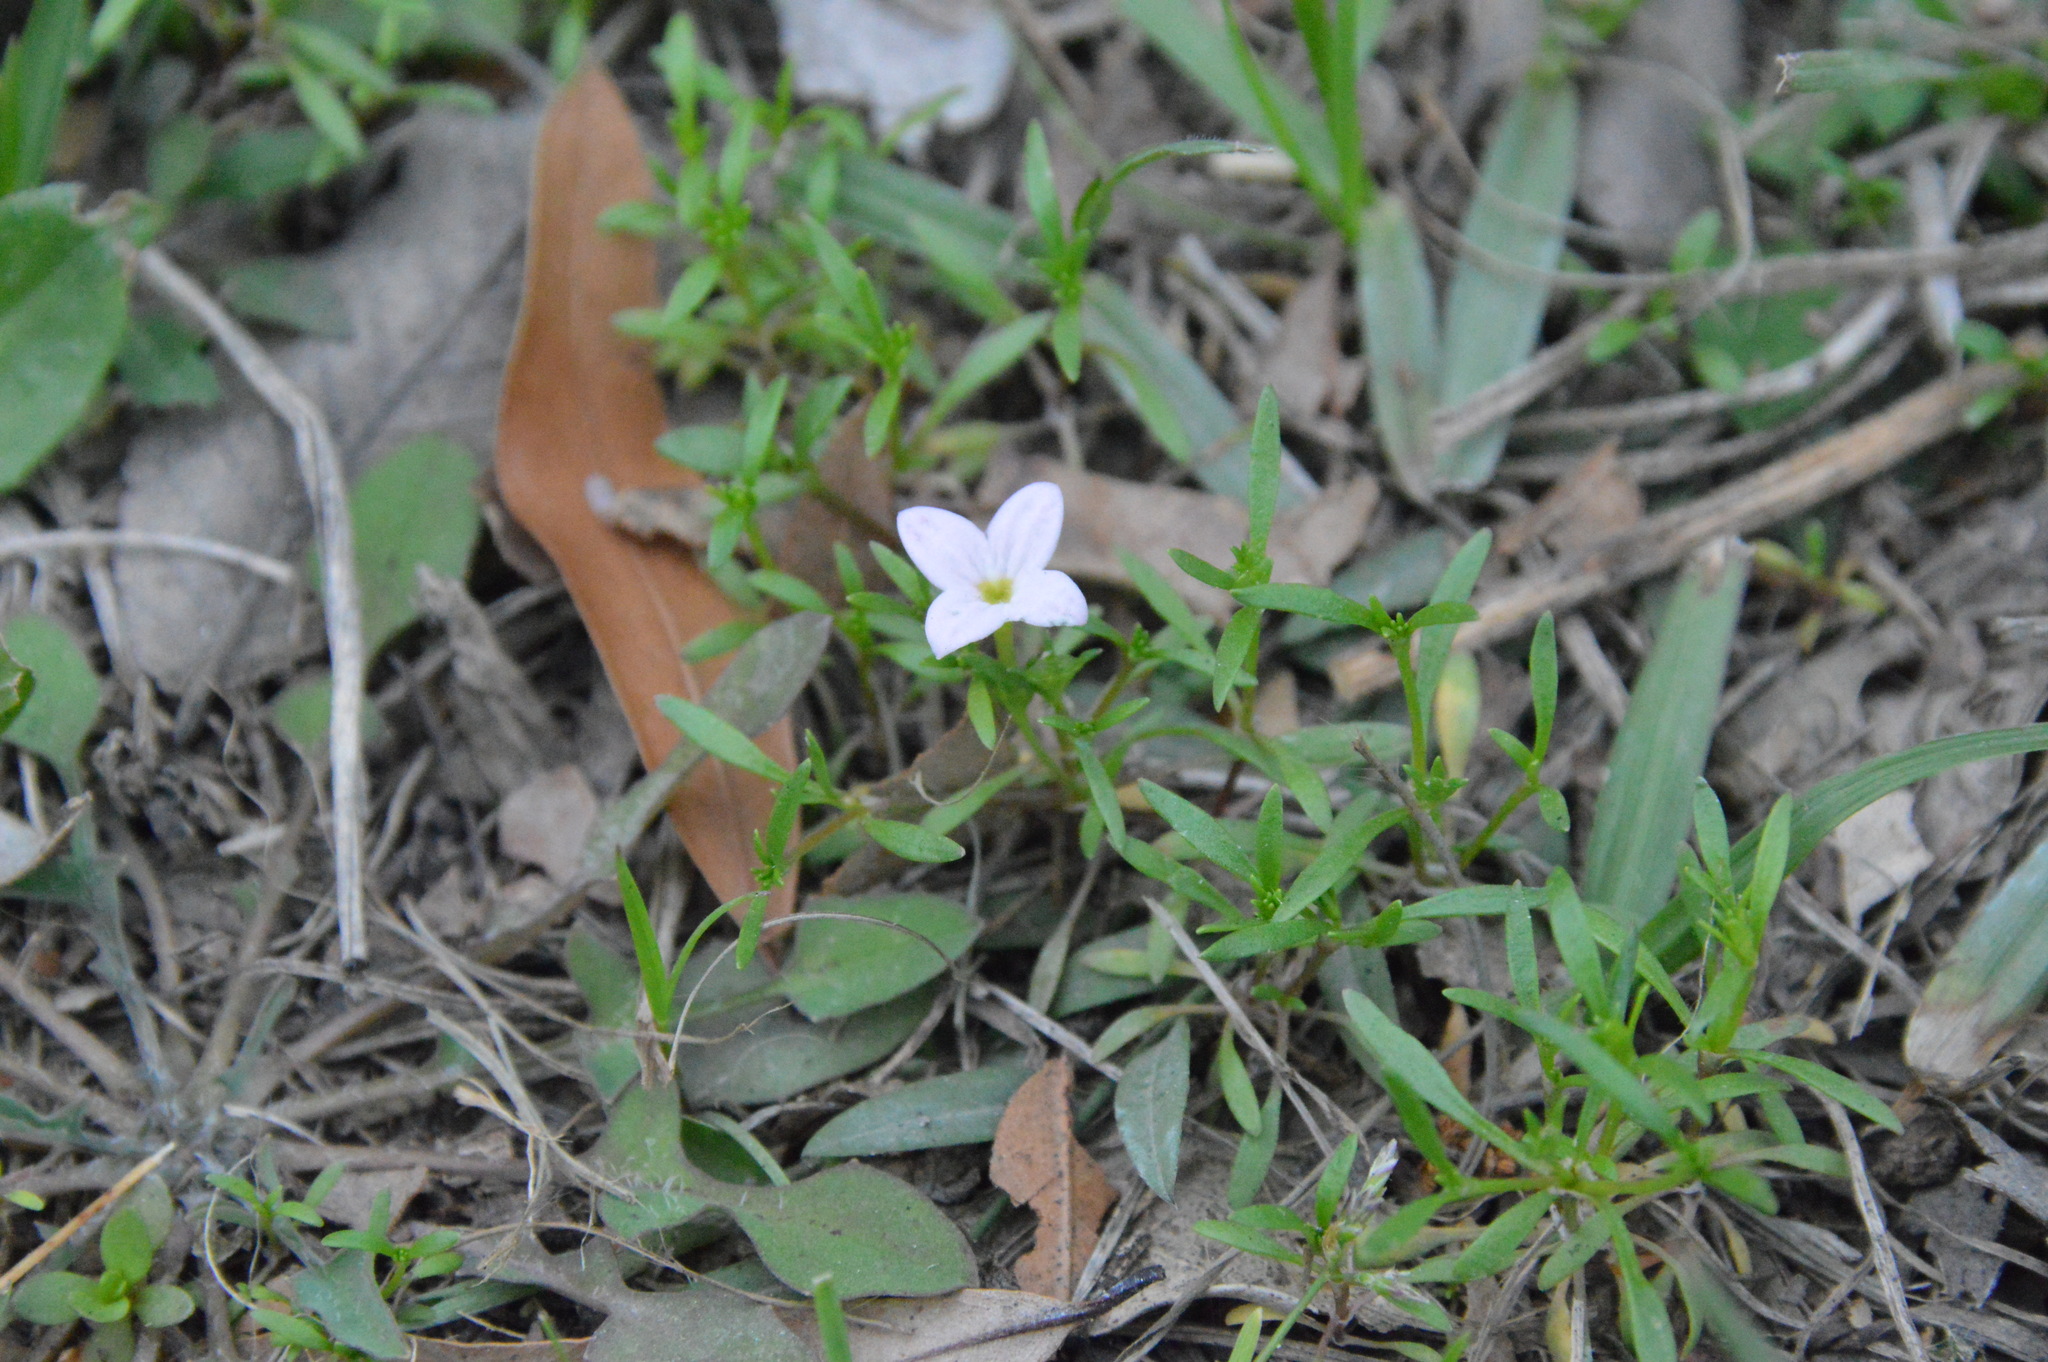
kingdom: Plantae
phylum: Tracheophyta
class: Magnoliopsida
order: Gentianales
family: Rubiaceae
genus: Houstonia
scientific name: Houstonia rosea
